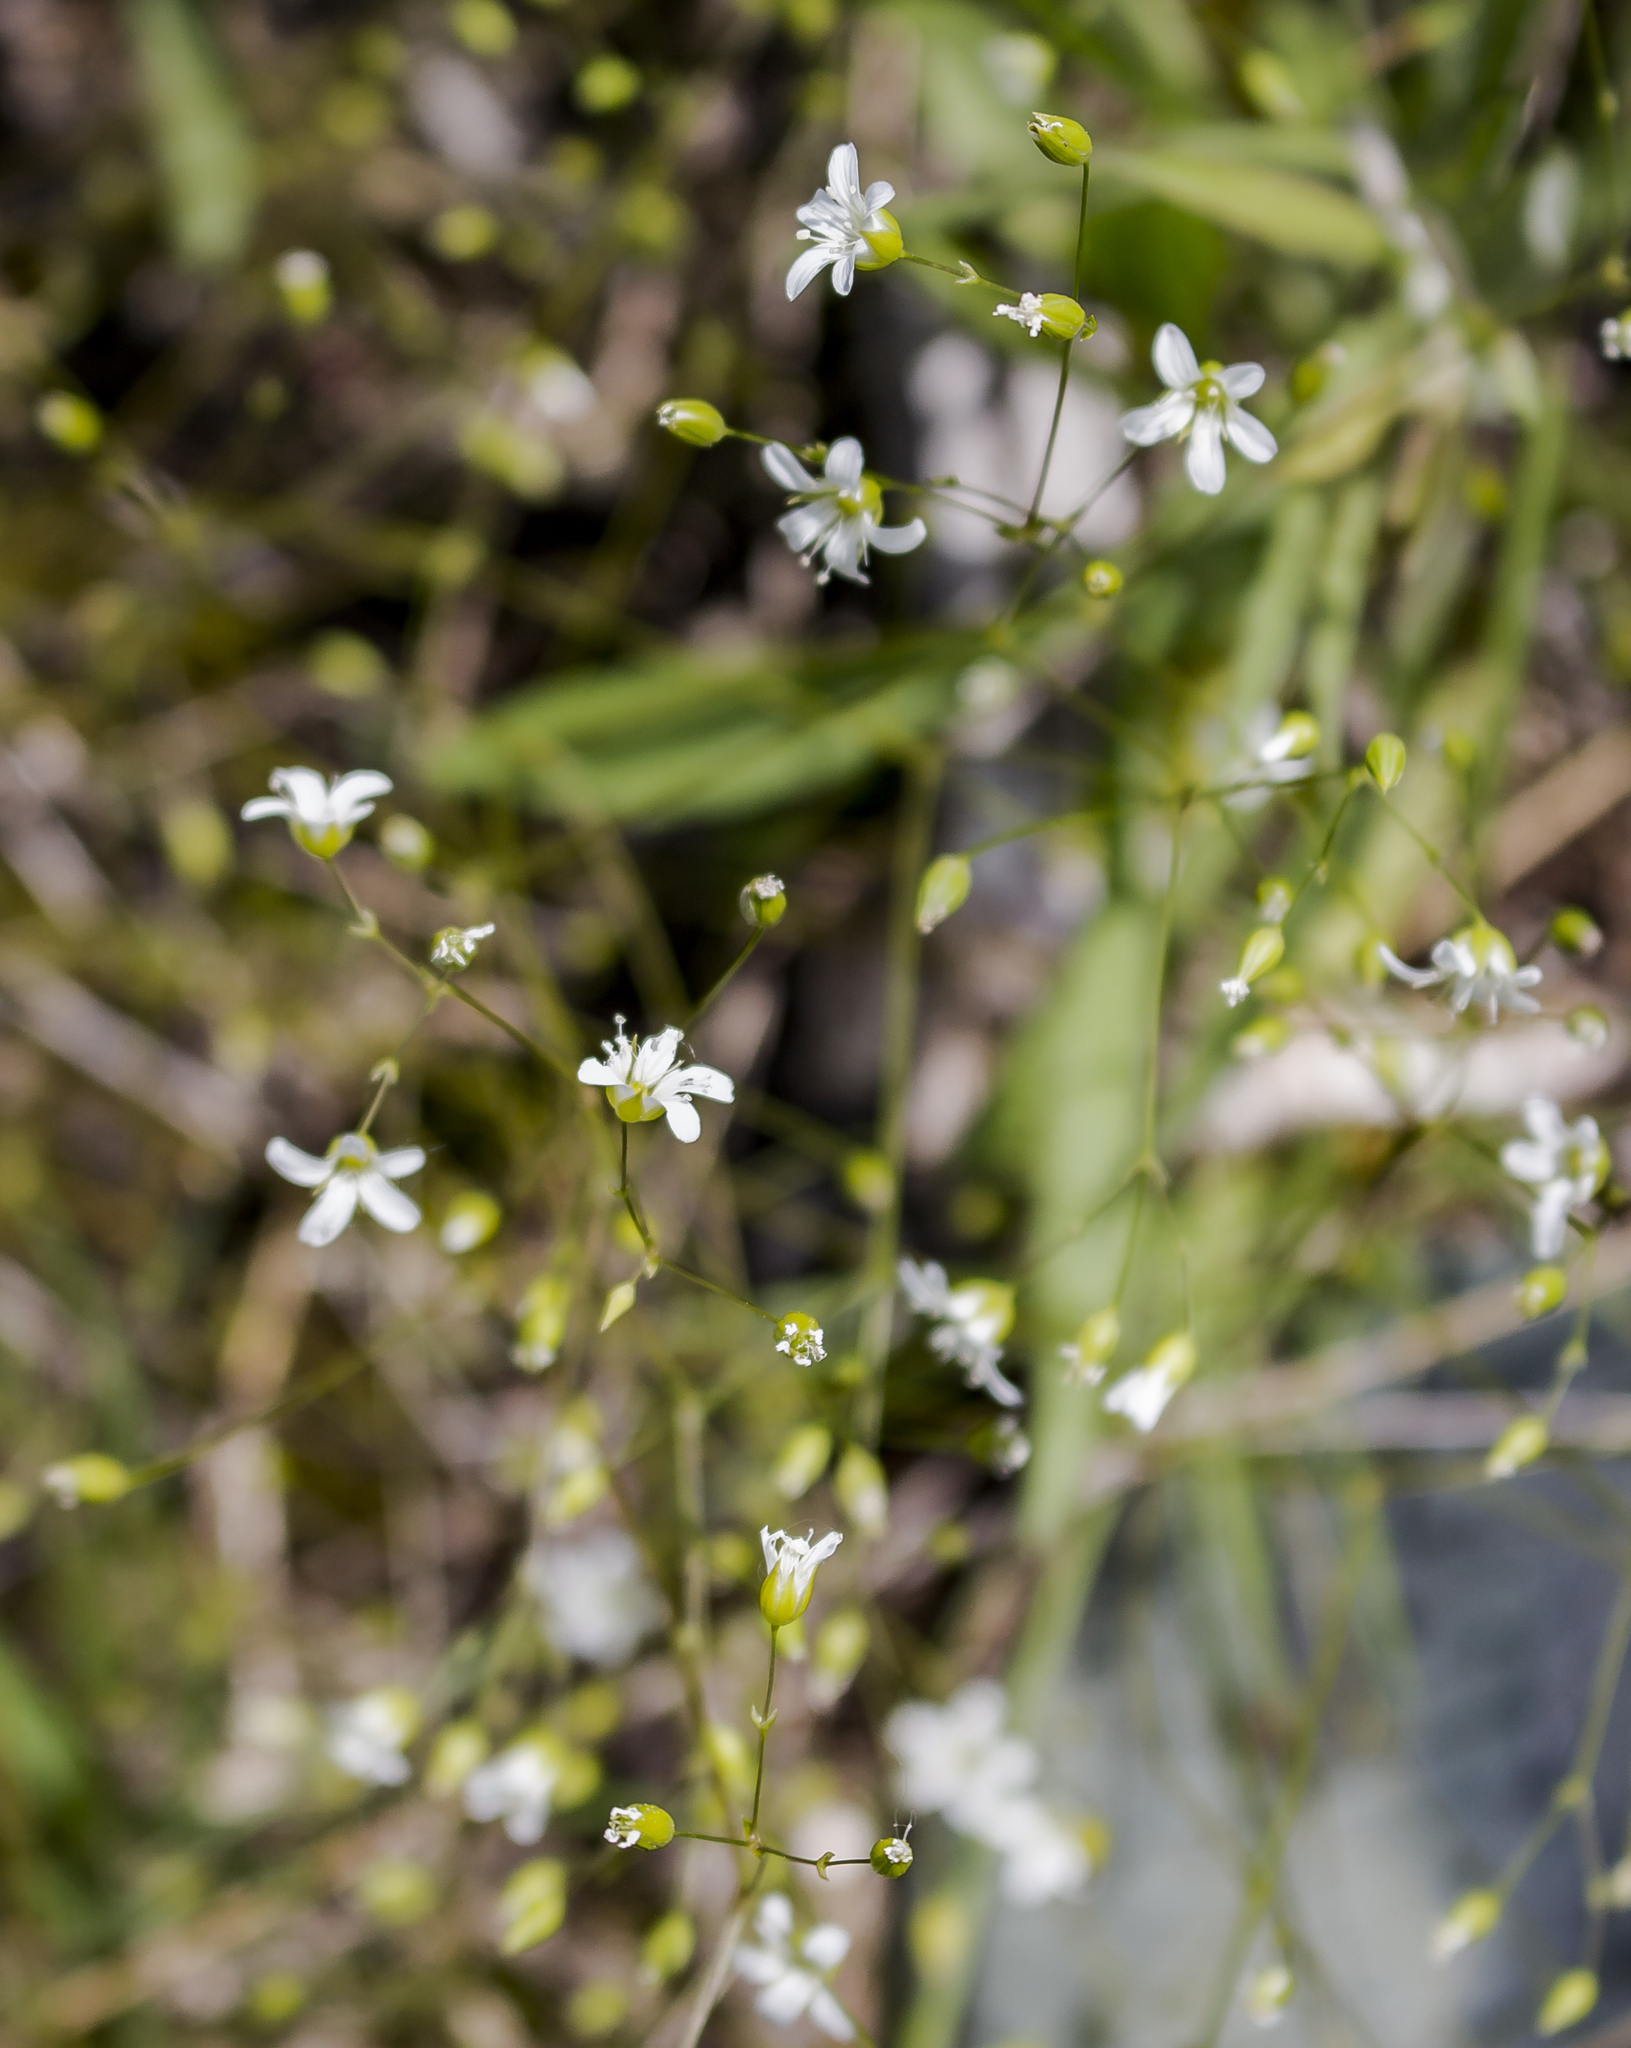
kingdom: Plantae
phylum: Tracheophyta
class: Magnoliopsida
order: Caryophyllales
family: Caryophyllaceae
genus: Sabulina
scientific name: Sabulina michauxii
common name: Michaux's stitchwort
